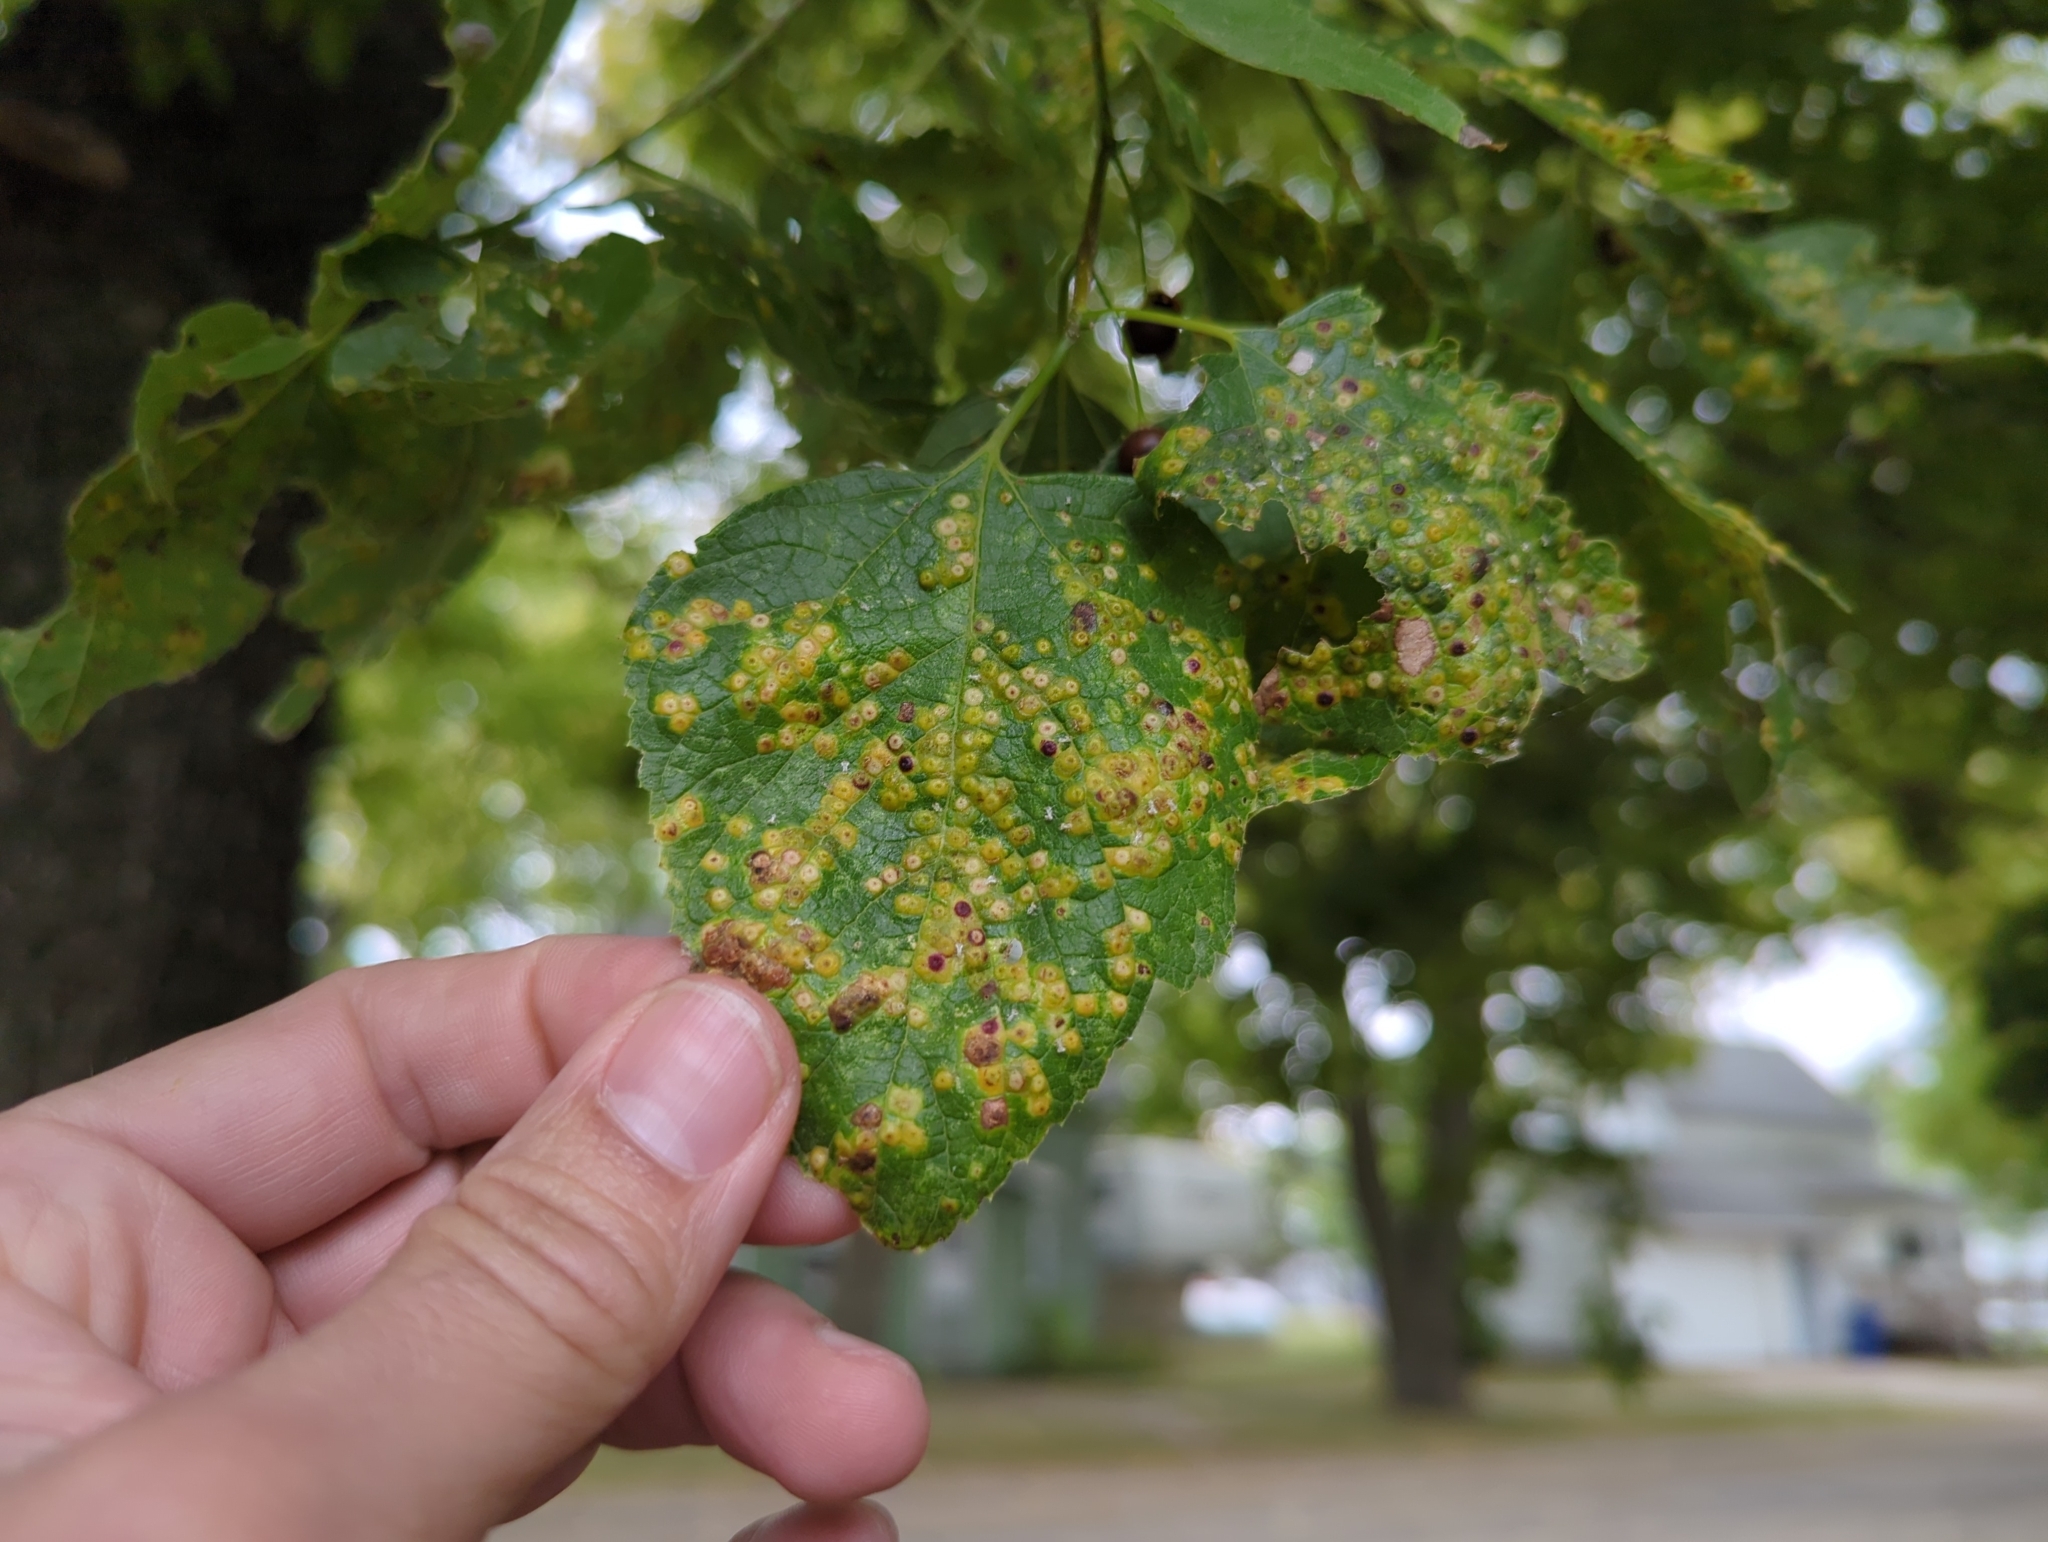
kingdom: Animalia
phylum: Arthropoda
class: Insecta
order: Hemiptera
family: Aphalaridae
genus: Pachypsylla
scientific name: Pachypsylla celtidisvesicula
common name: Hackberry blister gall psyllid
